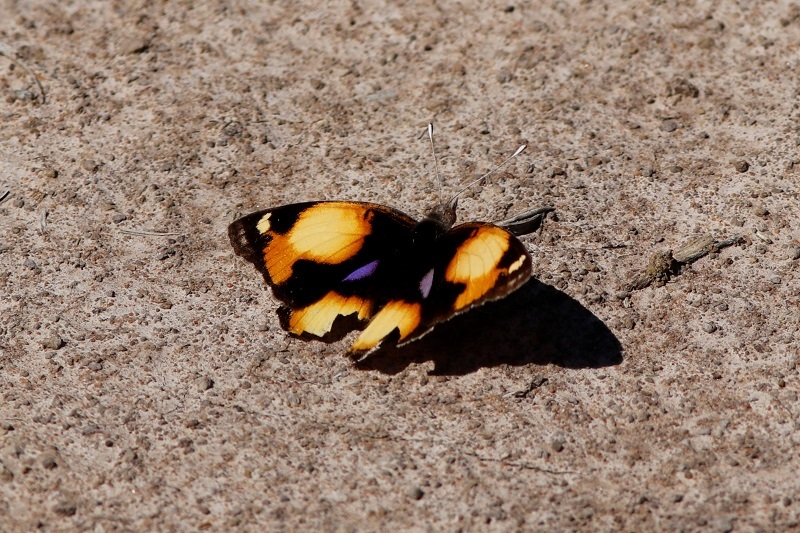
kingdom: Animalia
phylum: Arthropoda
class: Insecta
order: Lepidoptera
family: Nymphalidae
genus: Junonia
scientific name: Junonia hierta
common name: Yellow pansy
